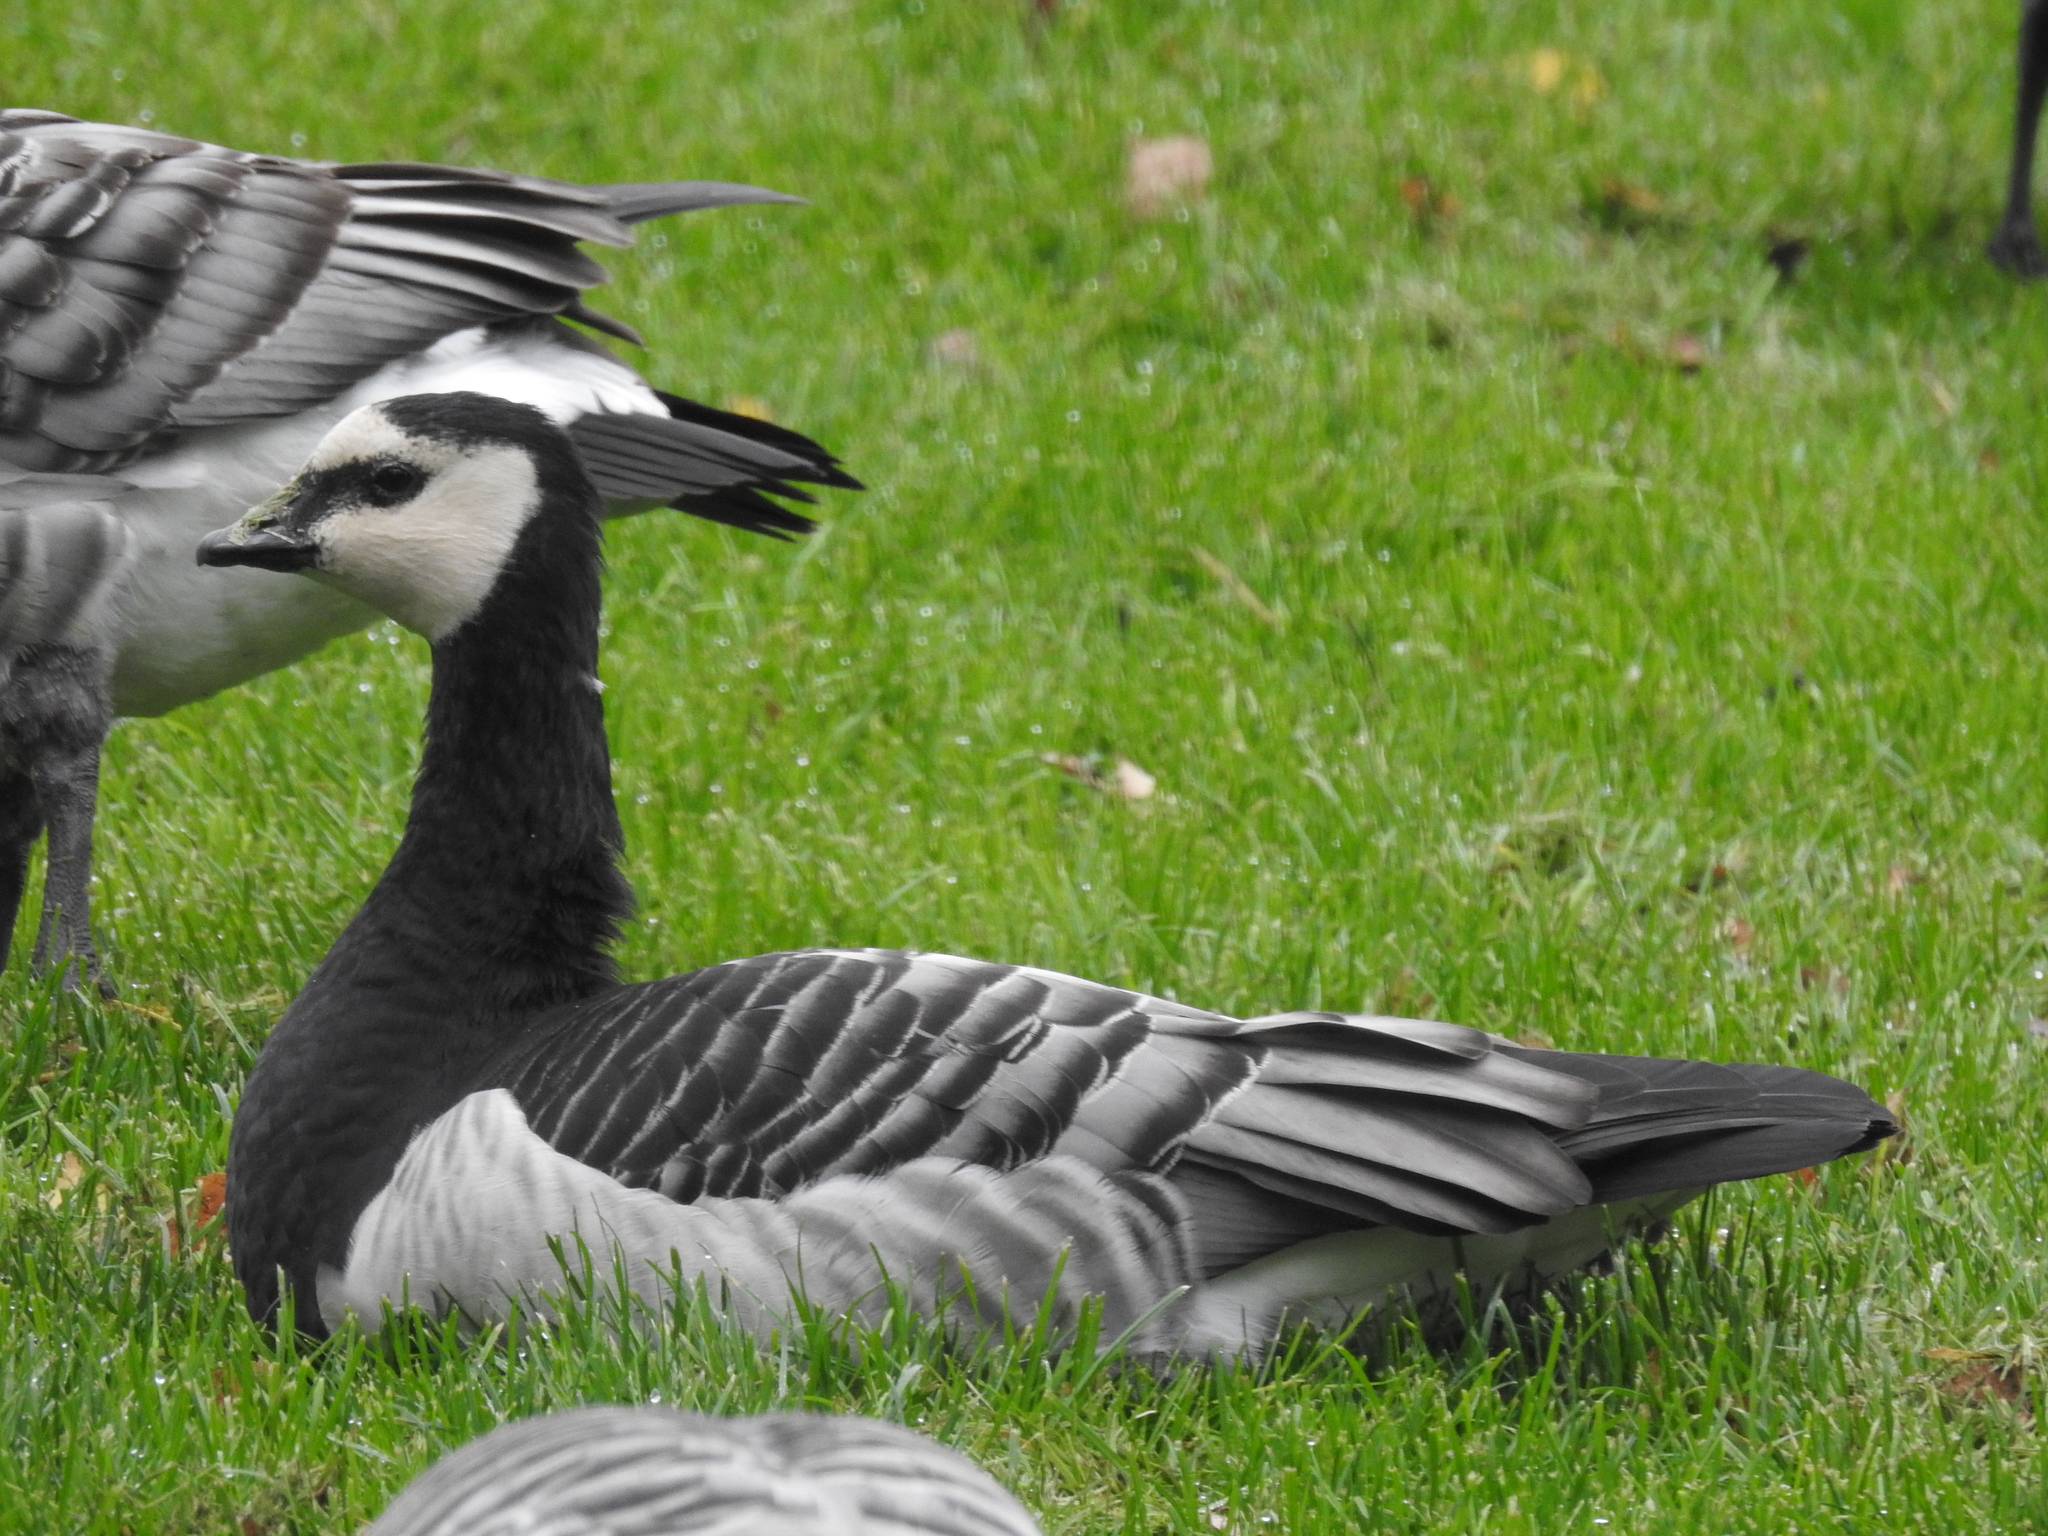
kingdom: Animalia
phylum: Chordata
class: Aves
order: Anseriformes
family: Anatidae
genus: Branta
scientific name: Branta leucopsis
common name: Barnacle goose
